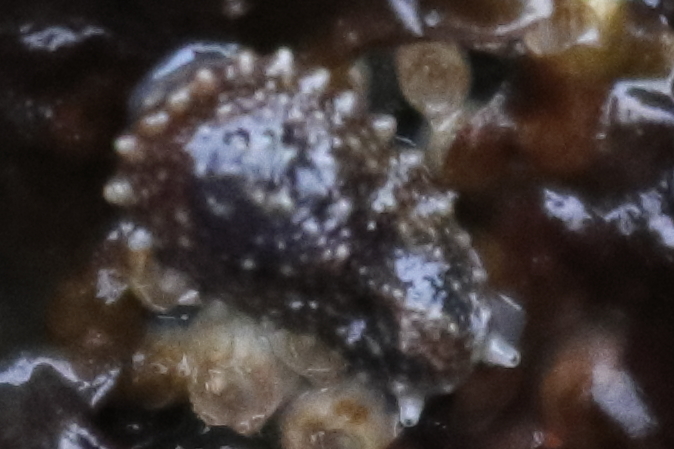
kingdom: Animalia
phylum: Mollusca
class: Gastropoda
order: Systellommatophora
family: Onchidiidae
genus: Onchidella
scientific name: Onchidella carpenteri
